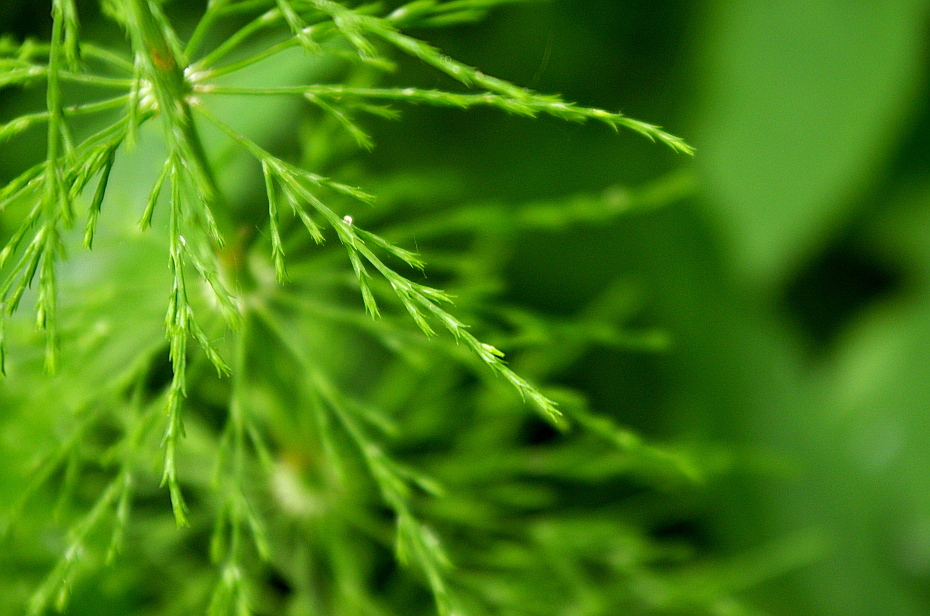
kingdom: Plantae
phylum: Tracheophyta
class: Polypodiopsida
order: Equisetales
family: Equisetaceae
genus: Equisetum
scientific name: Equisetum sylvaticum
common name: Wood horsetail
